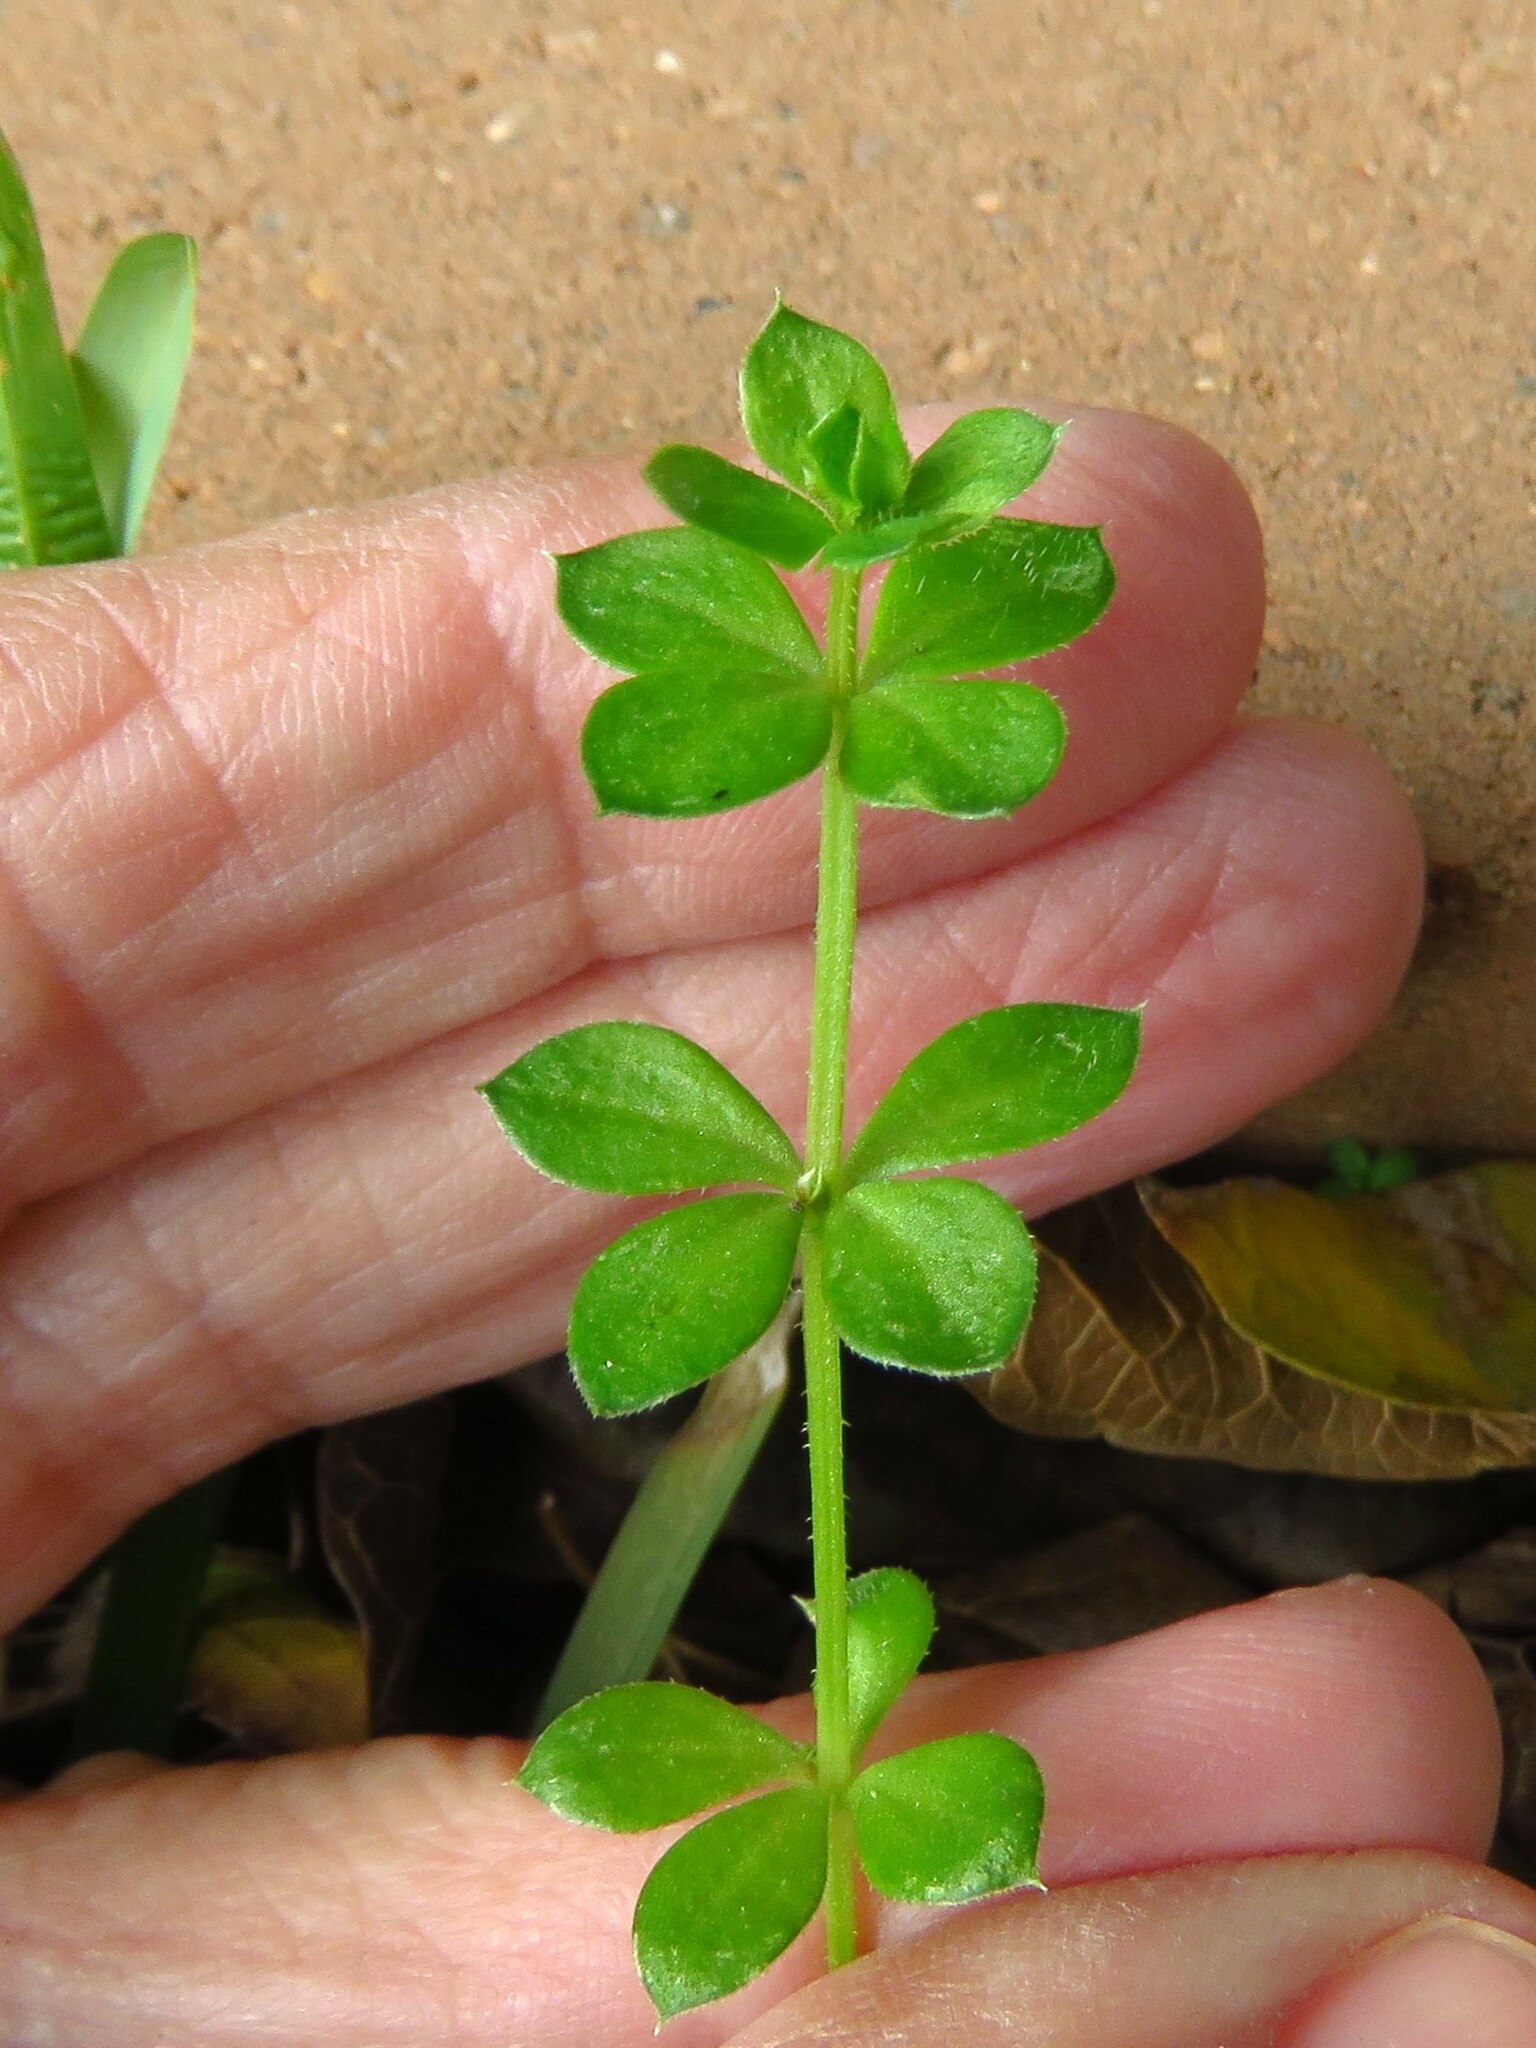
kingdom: Plantae
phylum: Tracheophyta
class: Magnoliopsida
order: Gentianales
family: Rubiaceae
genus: Galium
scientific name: Galium aparine
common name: Cleavers
